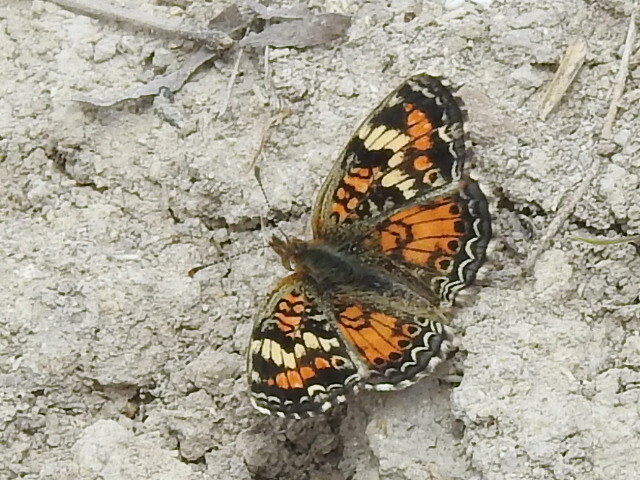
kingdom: Animalia
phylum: Arthropoda
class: Insecta
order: Lepidoptera
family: Nymphalidae
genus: Phyciodes
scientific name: Phyciodes phaon
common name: Phaon crescent
